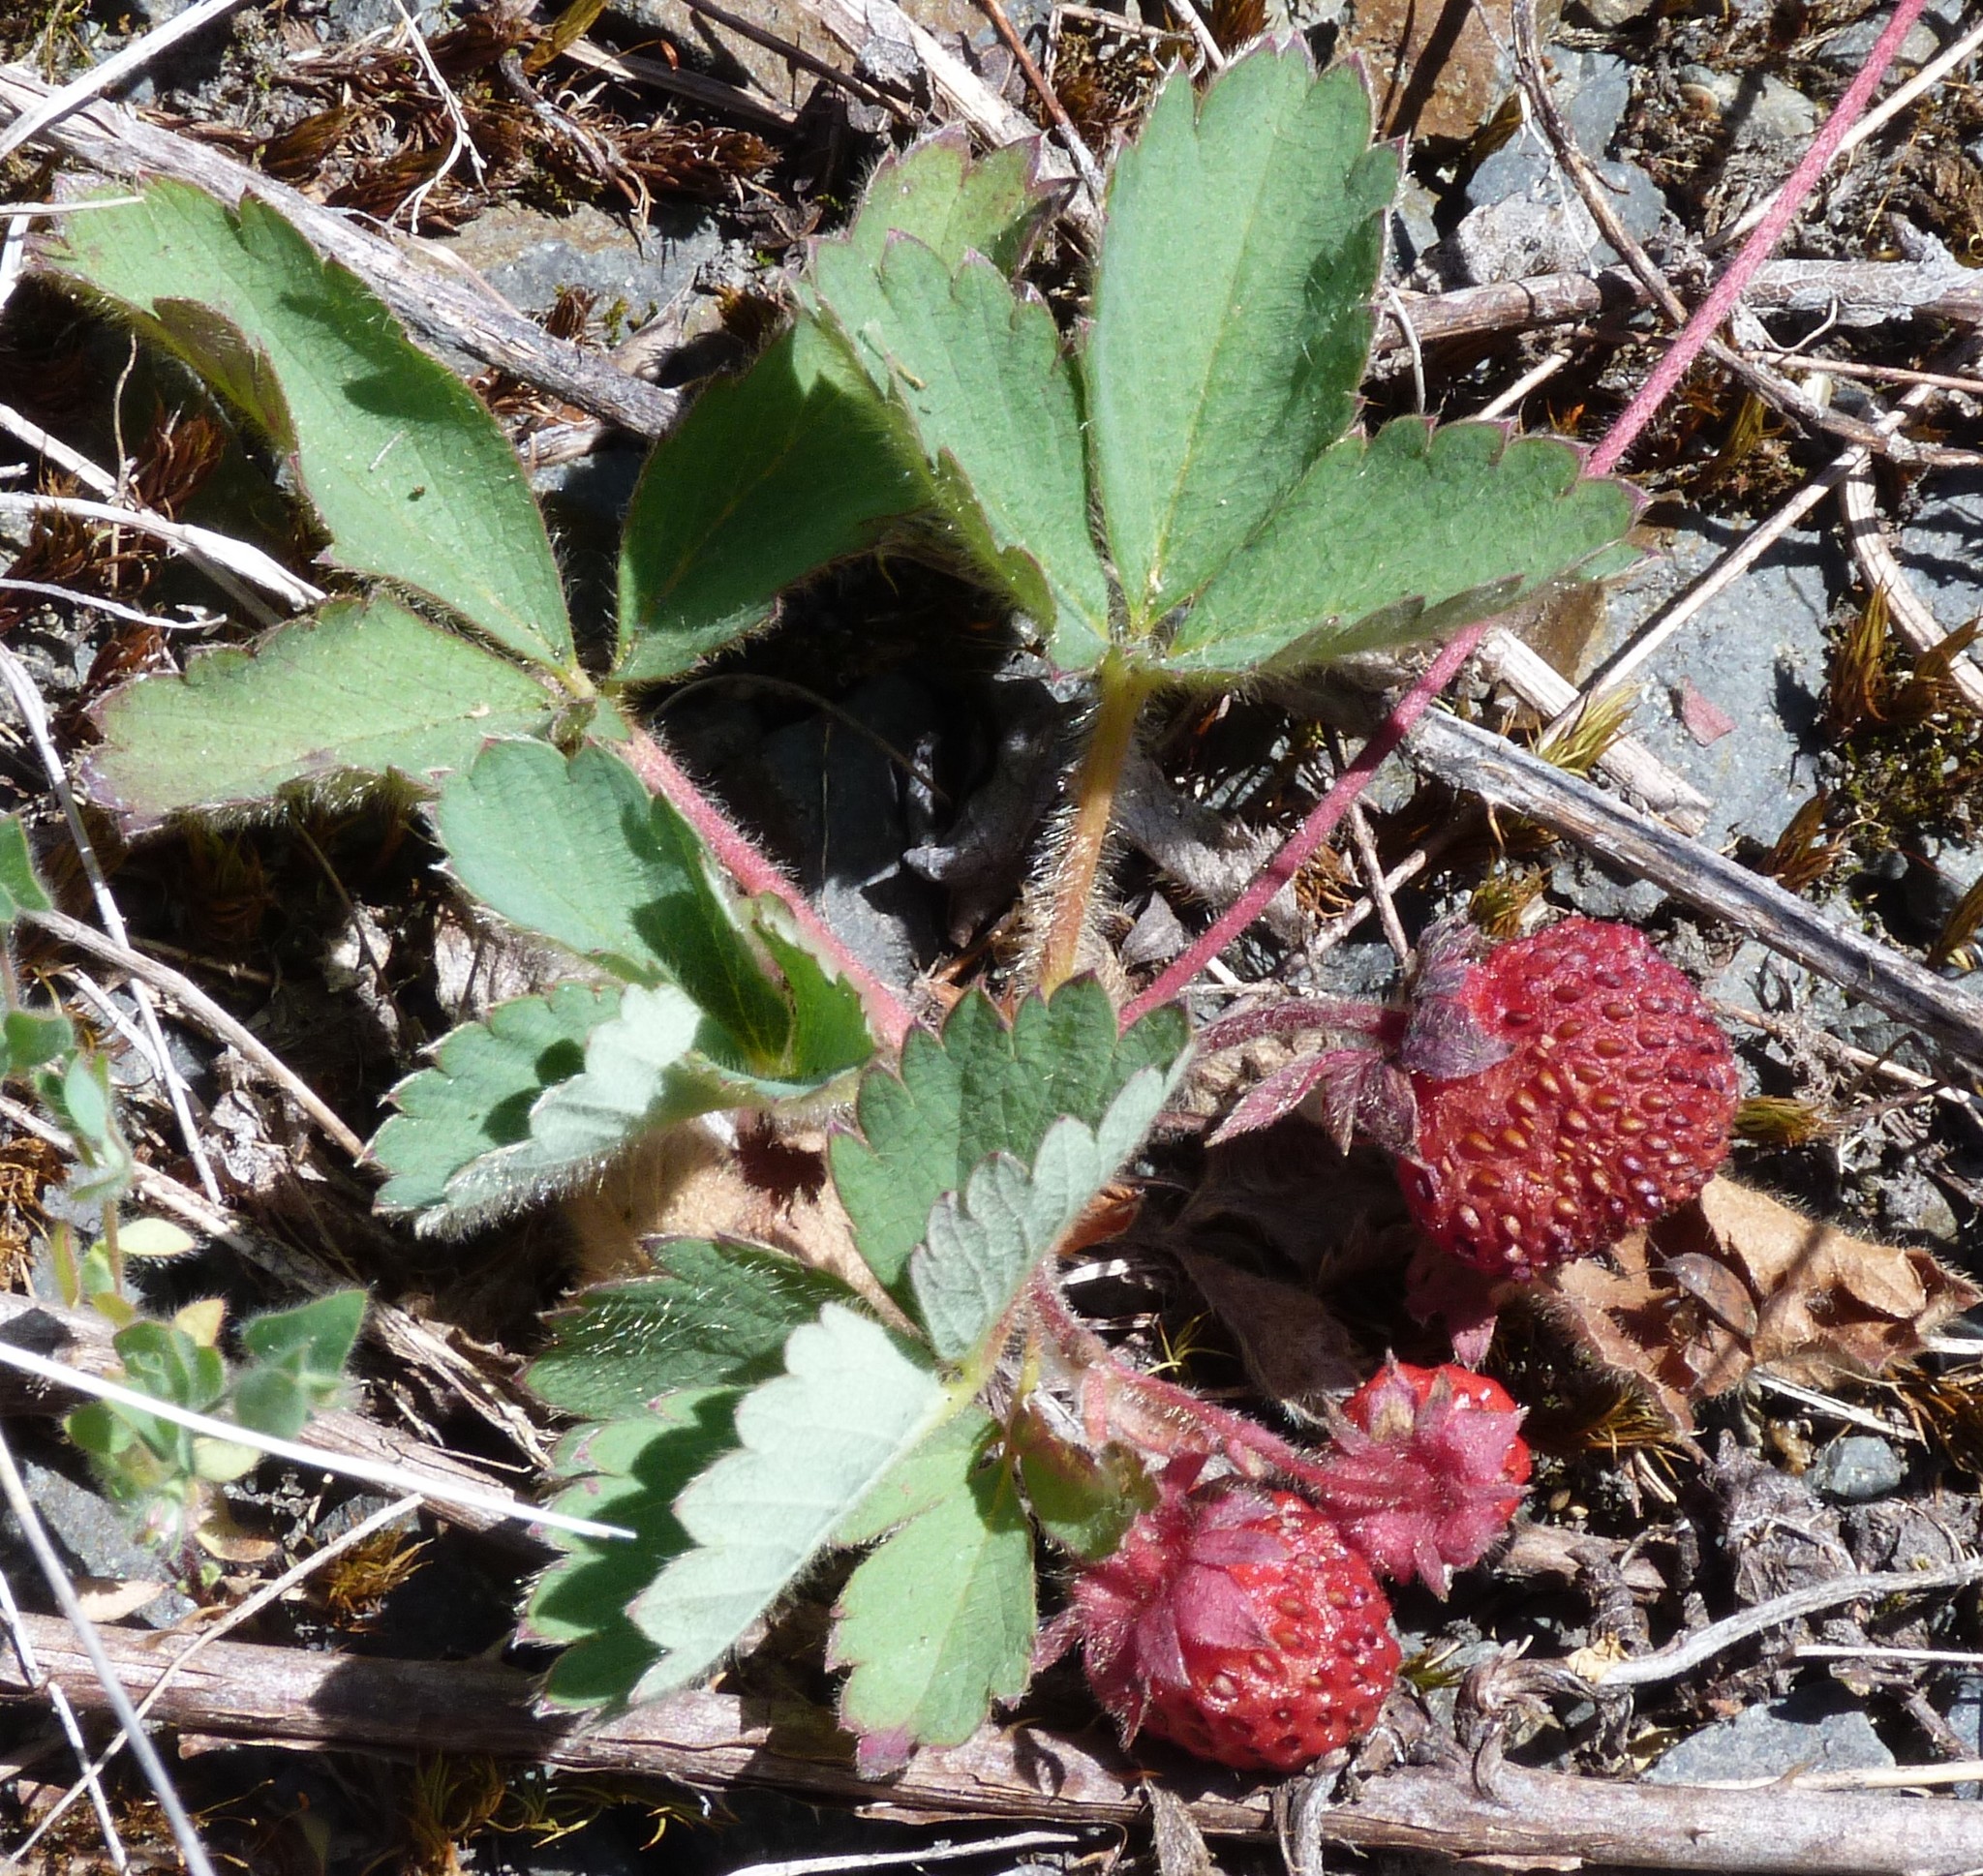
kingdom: Plantae
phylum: Tracheophyta
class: Magnoliopsida
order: Rosales
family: Rosaceae
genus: Fragaria
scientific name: Fragaria cascadensis
